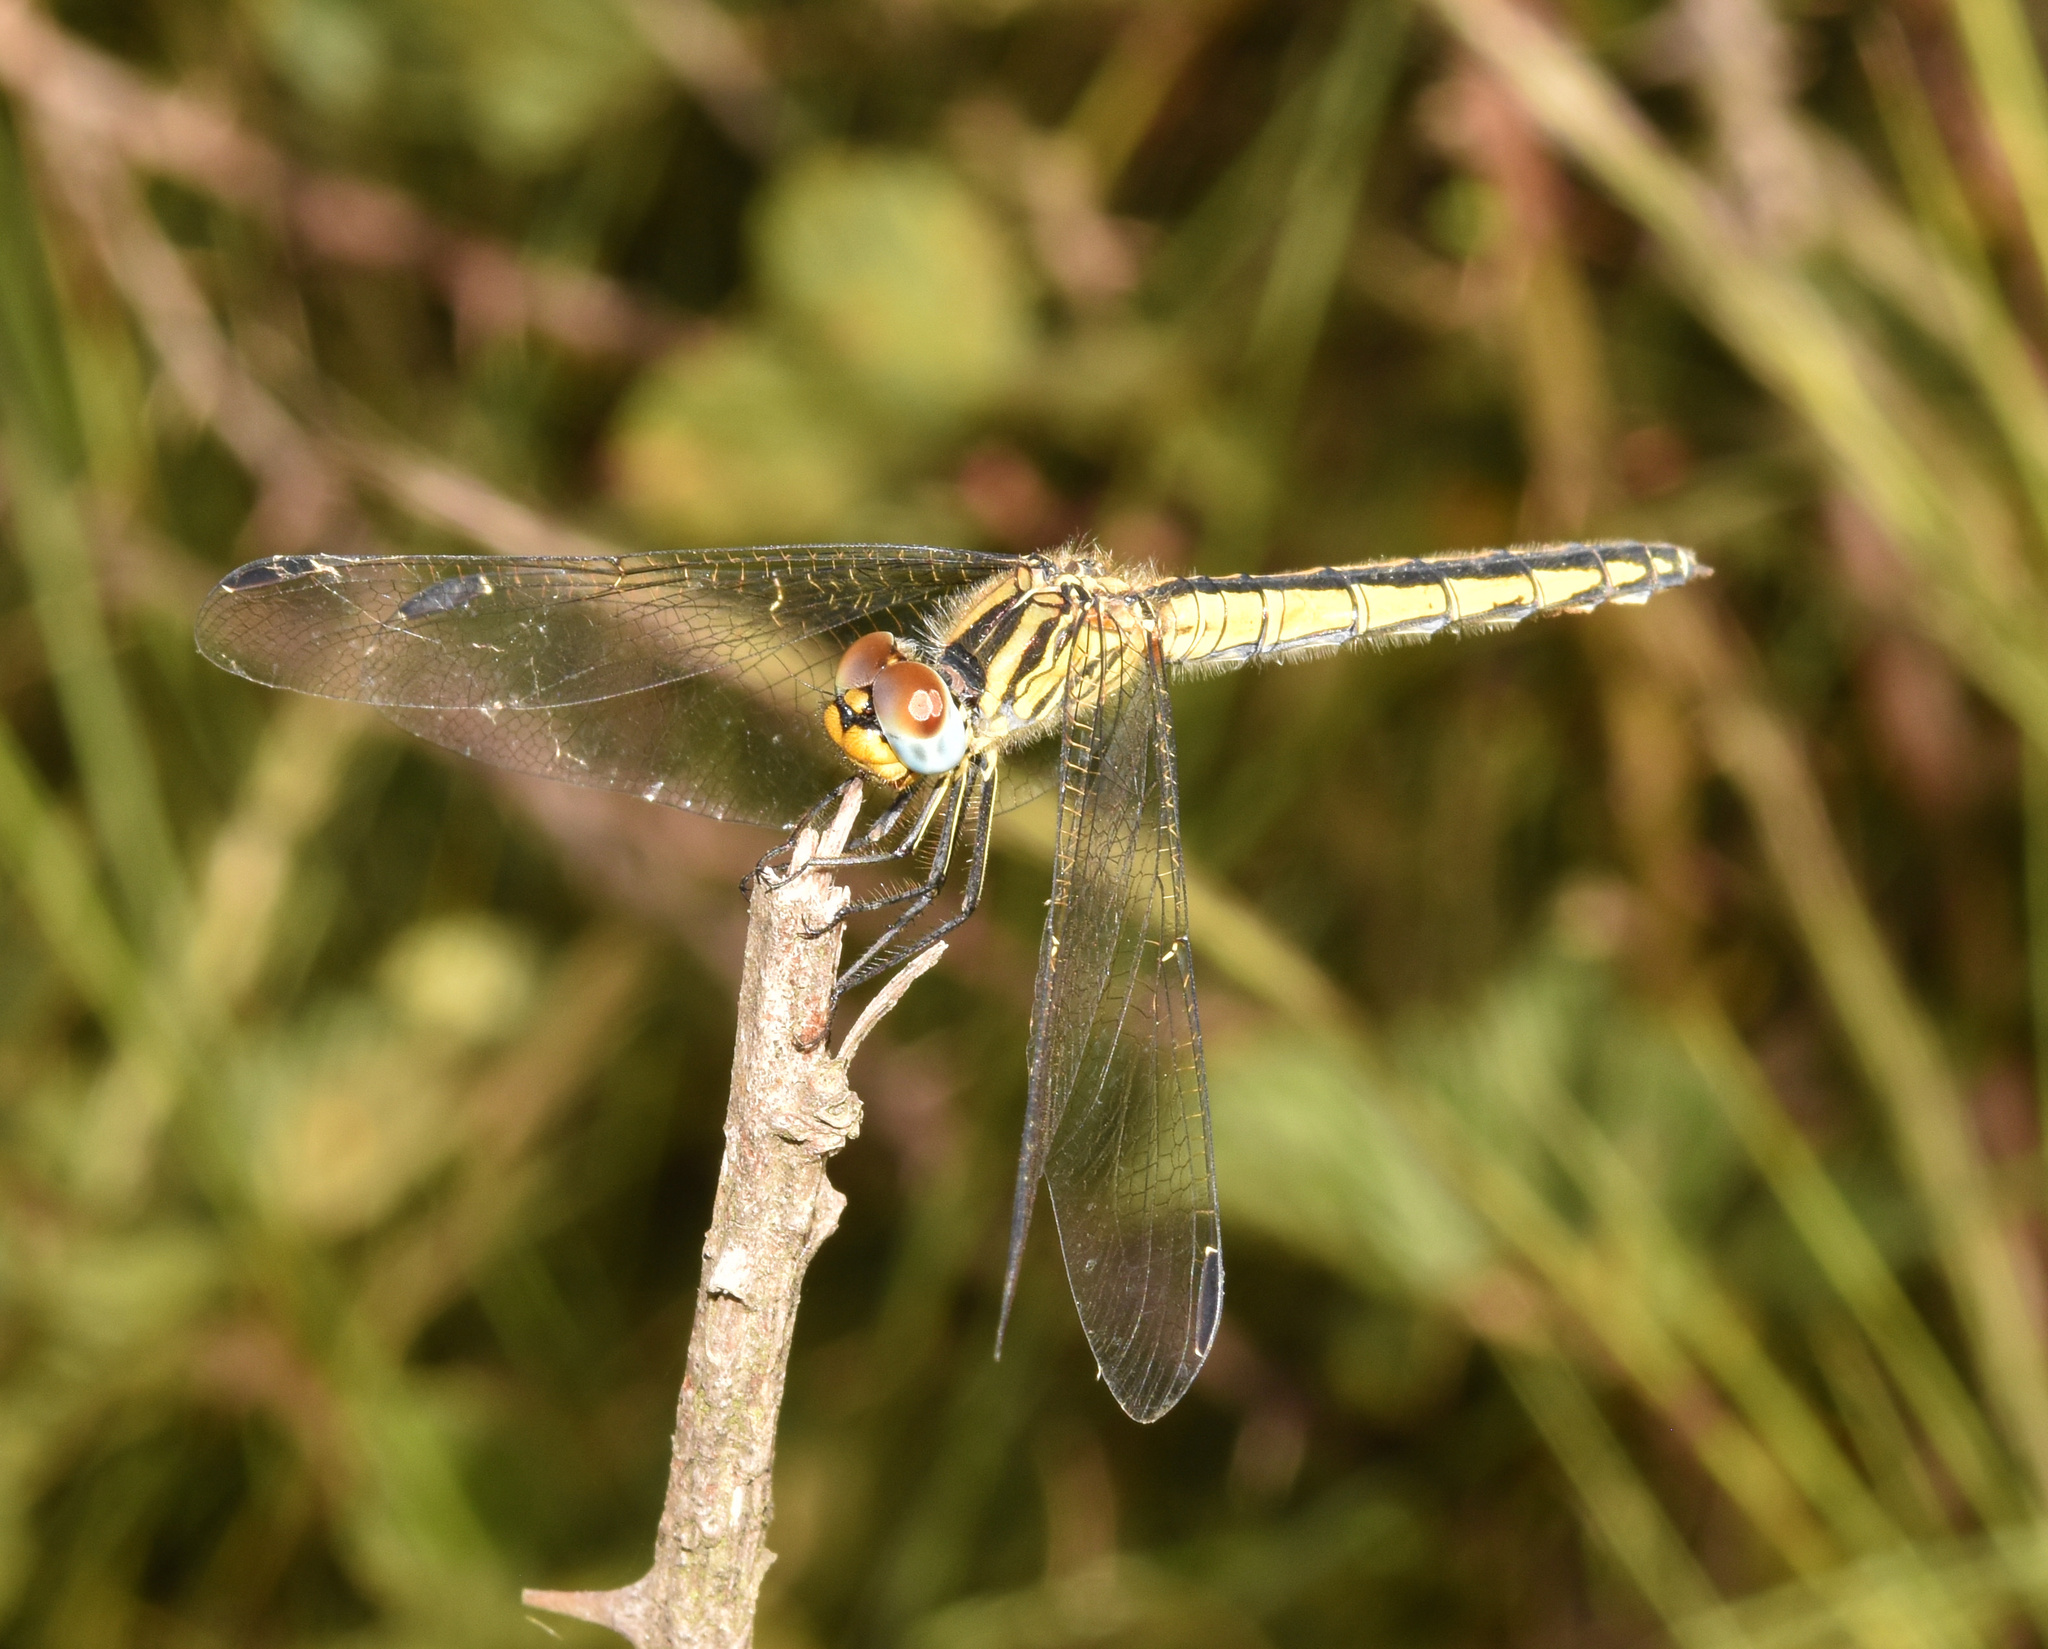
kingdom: Animalia
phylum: Arthropoda
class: Insecta
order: Odonata
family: Libellulidae
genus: Trithemis
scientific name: Trithemis dorsalis
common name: Highland dropwing
